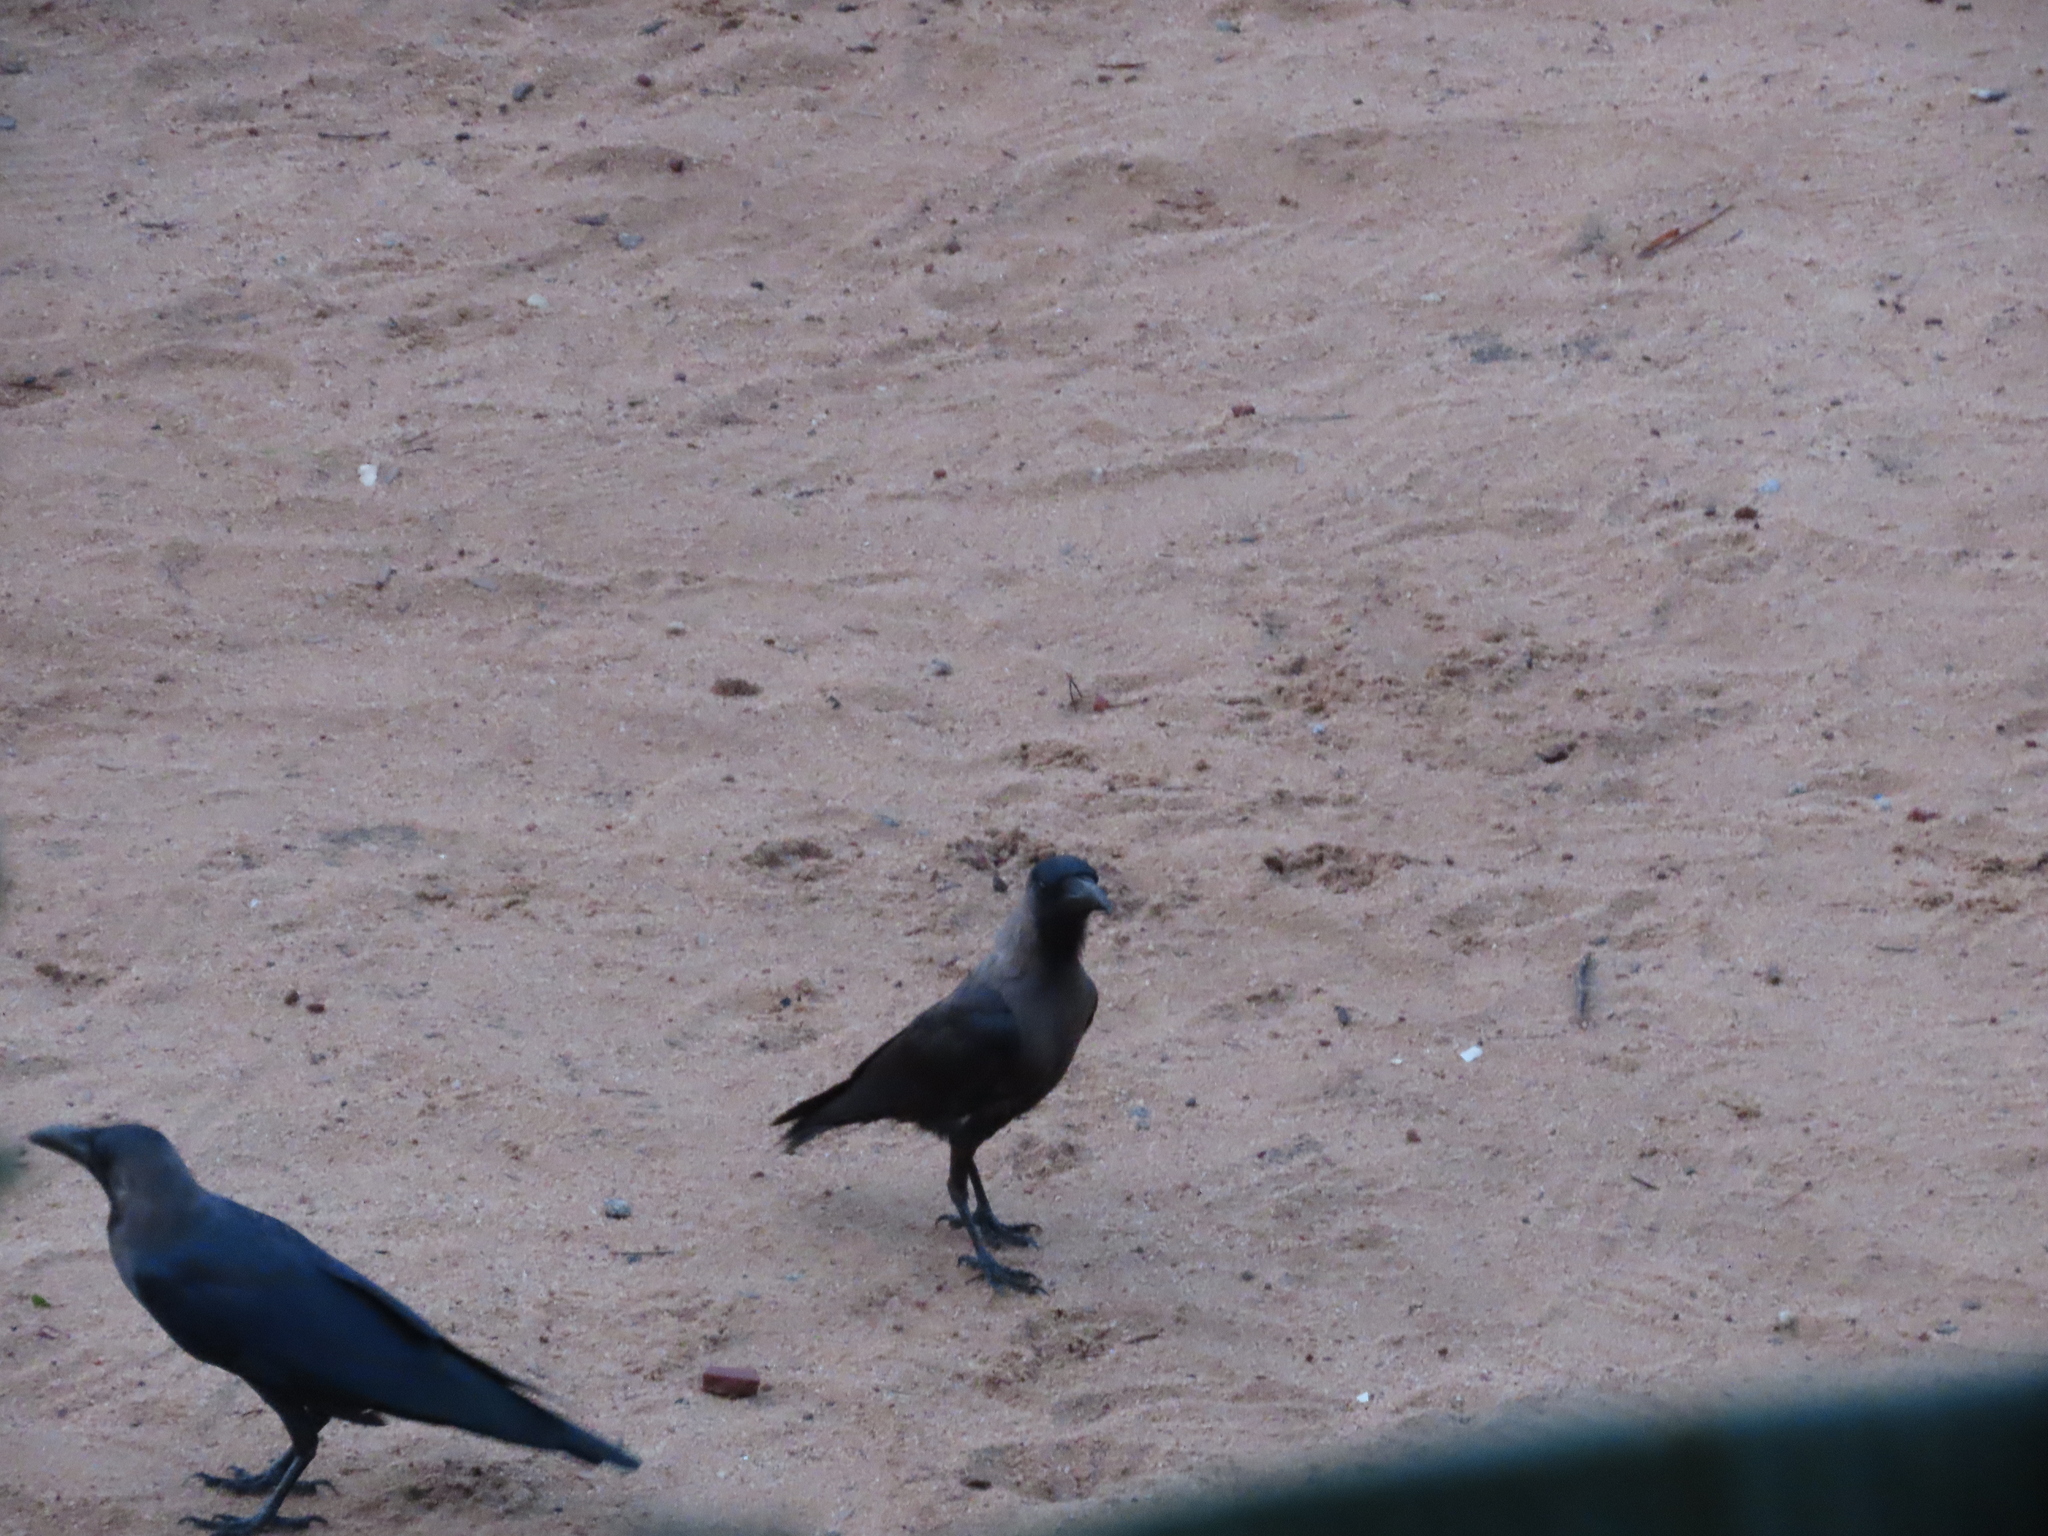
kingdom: Animalia
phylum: Chordata
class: Aves
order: Passeriformes
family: Corvidae
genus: Corvus
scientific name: Corvus splendens
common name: House crow
